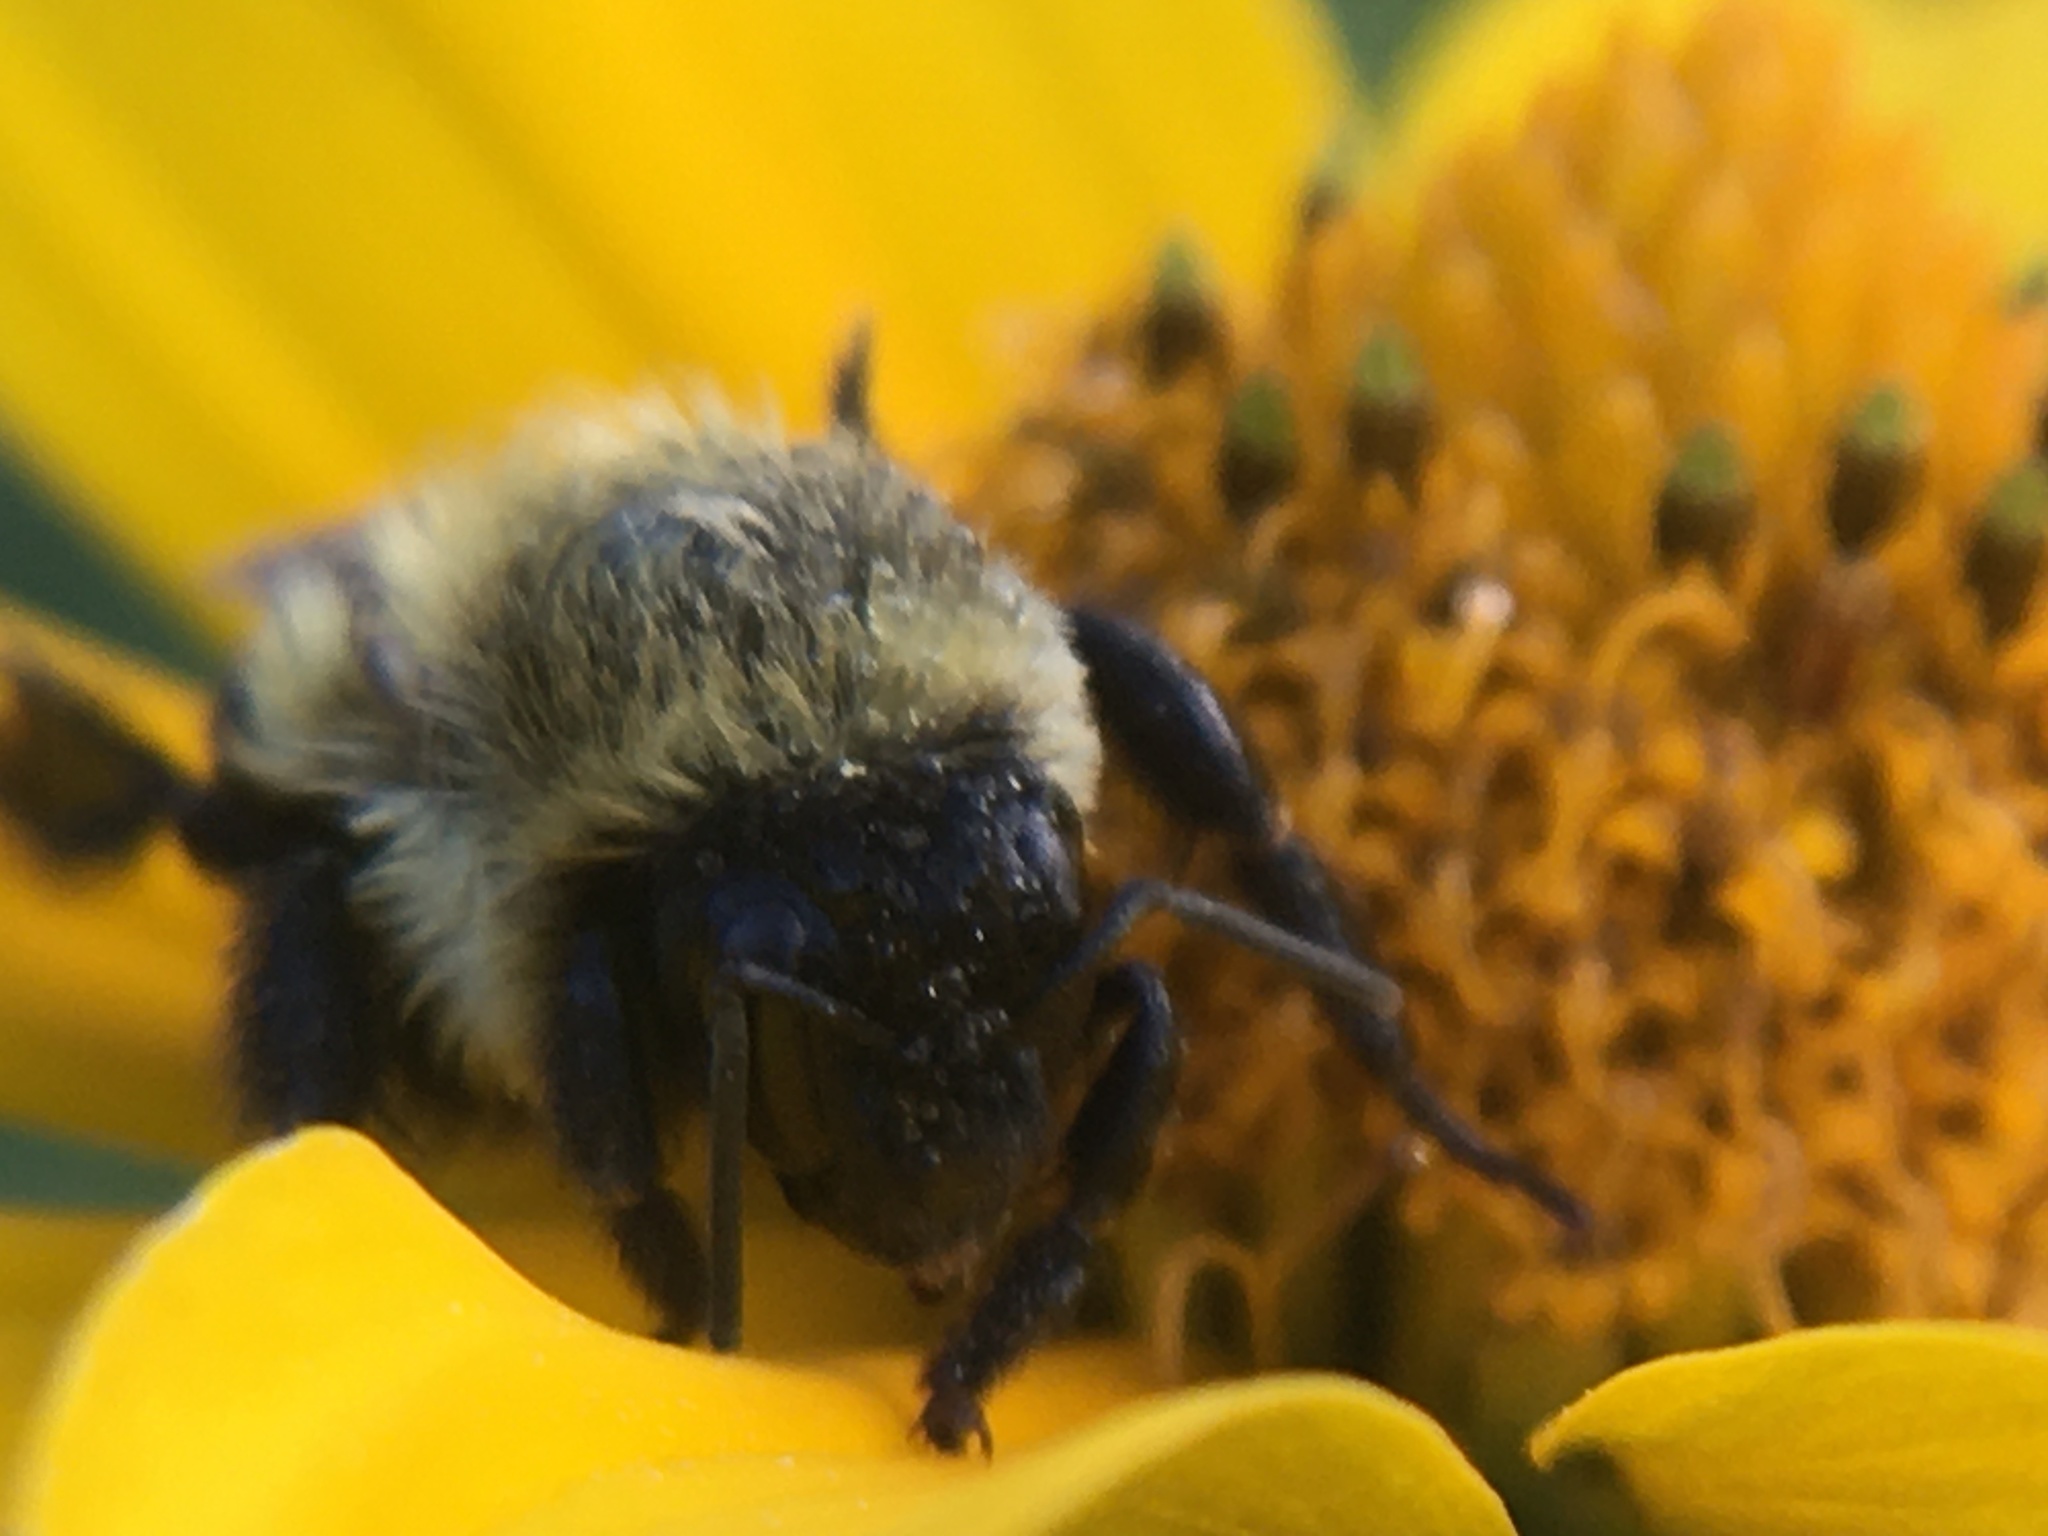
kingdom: Animalia
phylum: Arthropoda
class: Insecta
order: Hymenoptera
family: Apidae
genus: Bombus
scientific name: Bombus impatiens
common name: Common eastern bumble bee
